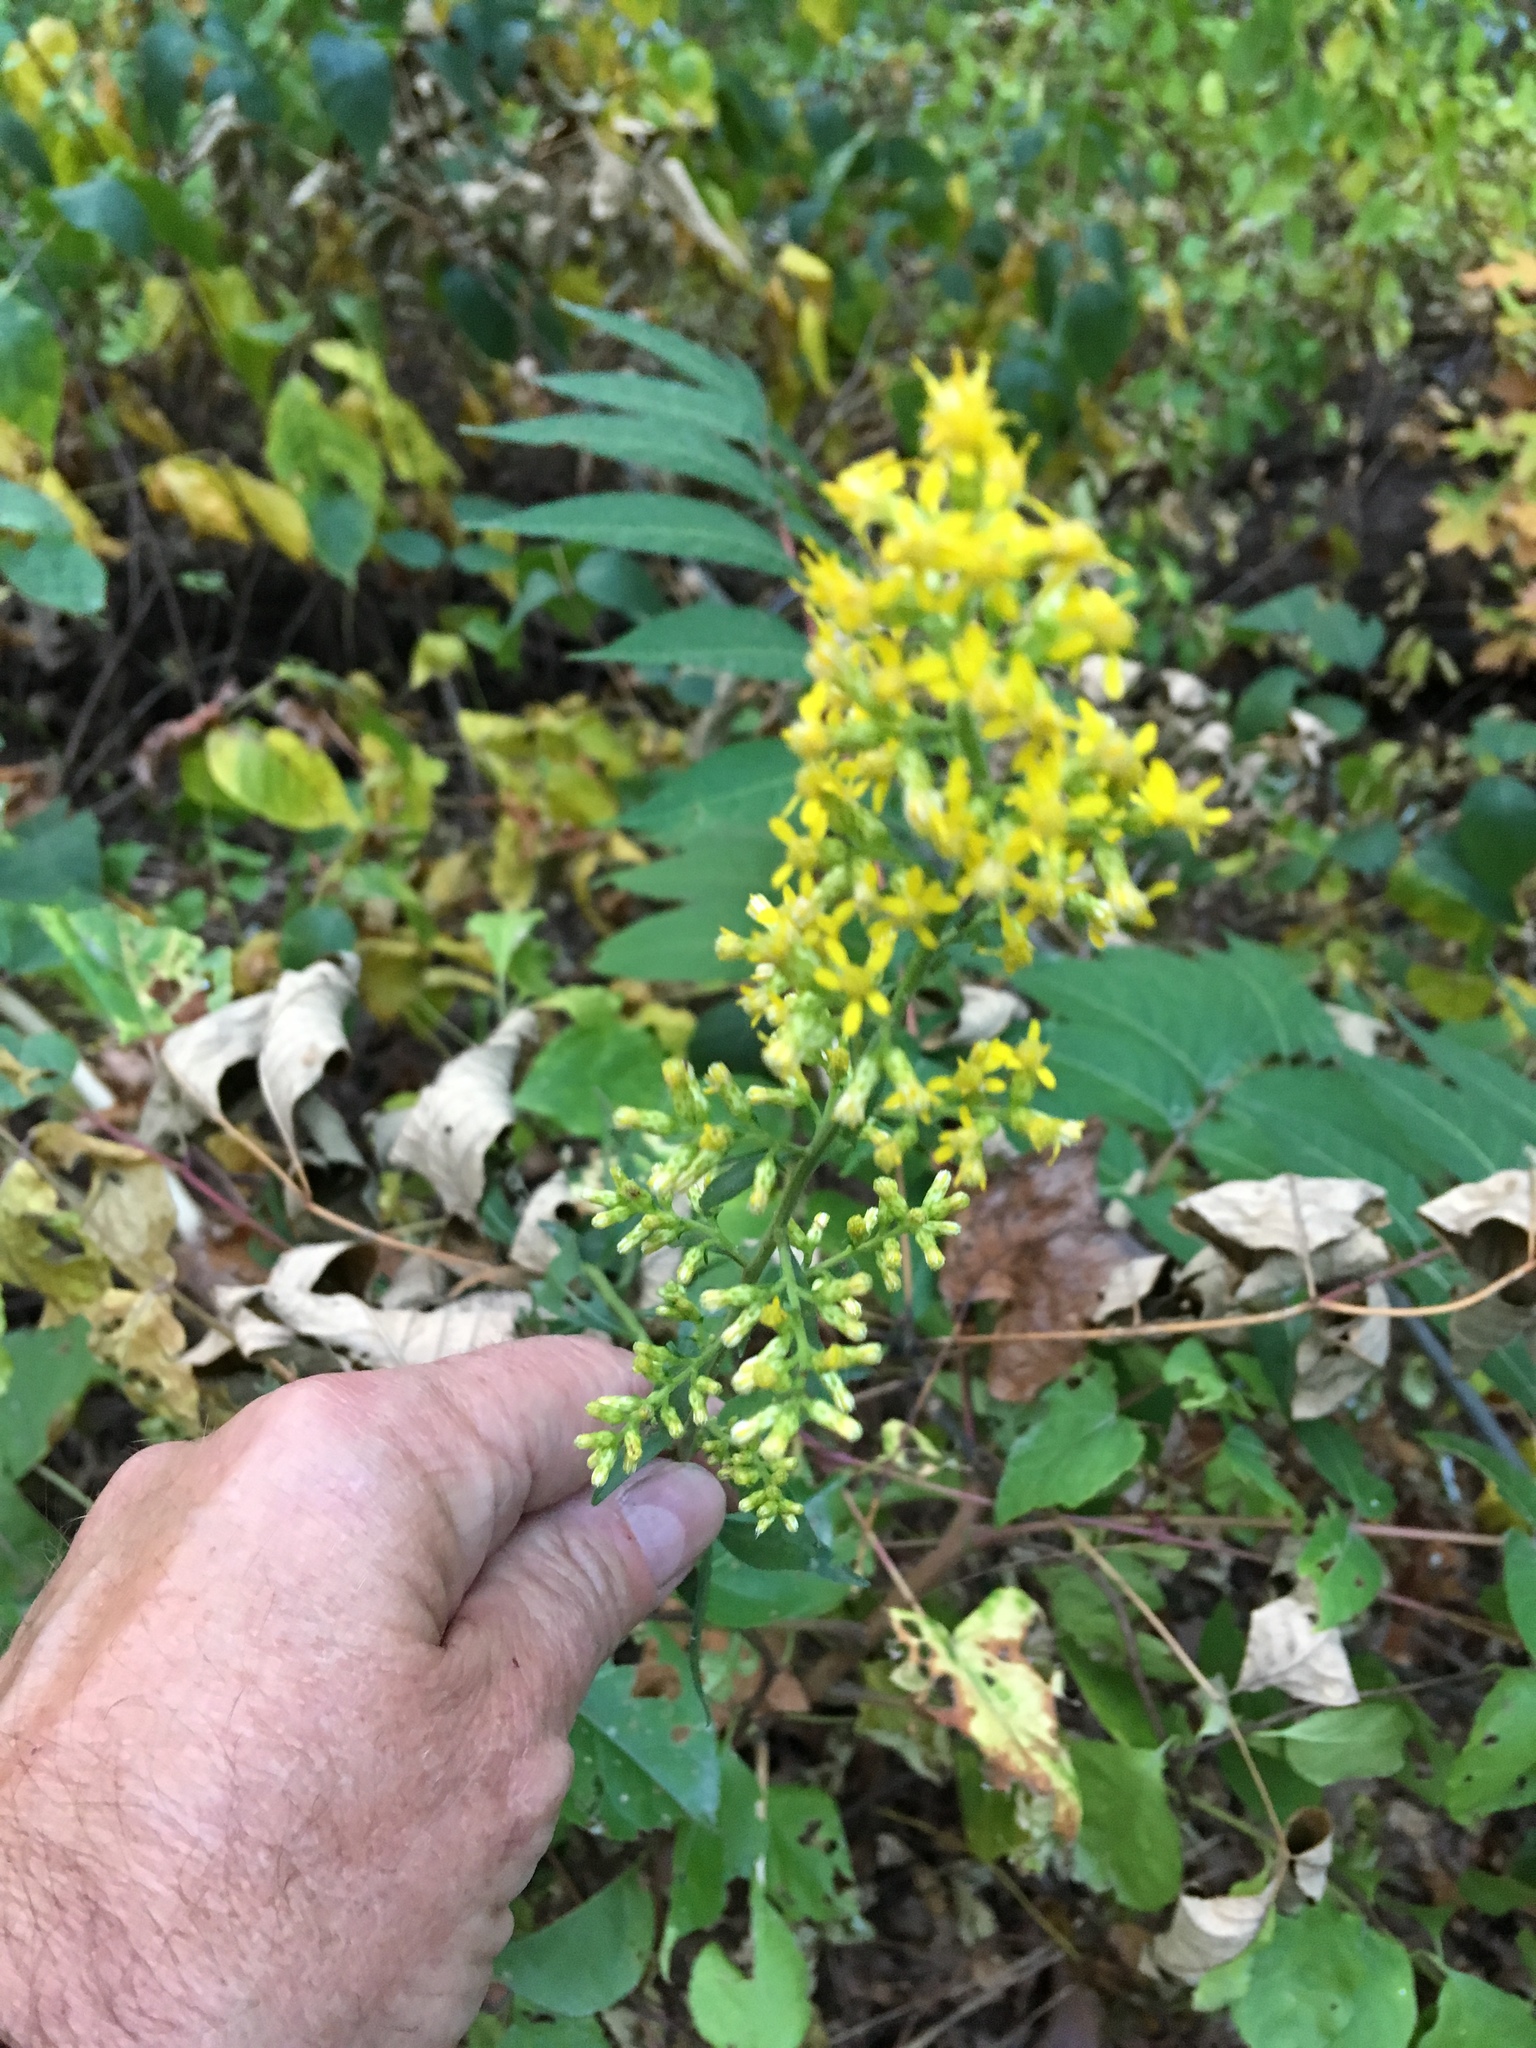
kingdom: Plantae
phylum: Tracheophyta
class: Magnoliopsida
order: Asterales
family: Asteraceae
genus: Solidago
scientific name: Solidago speciosa
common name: Showy goldenrod
